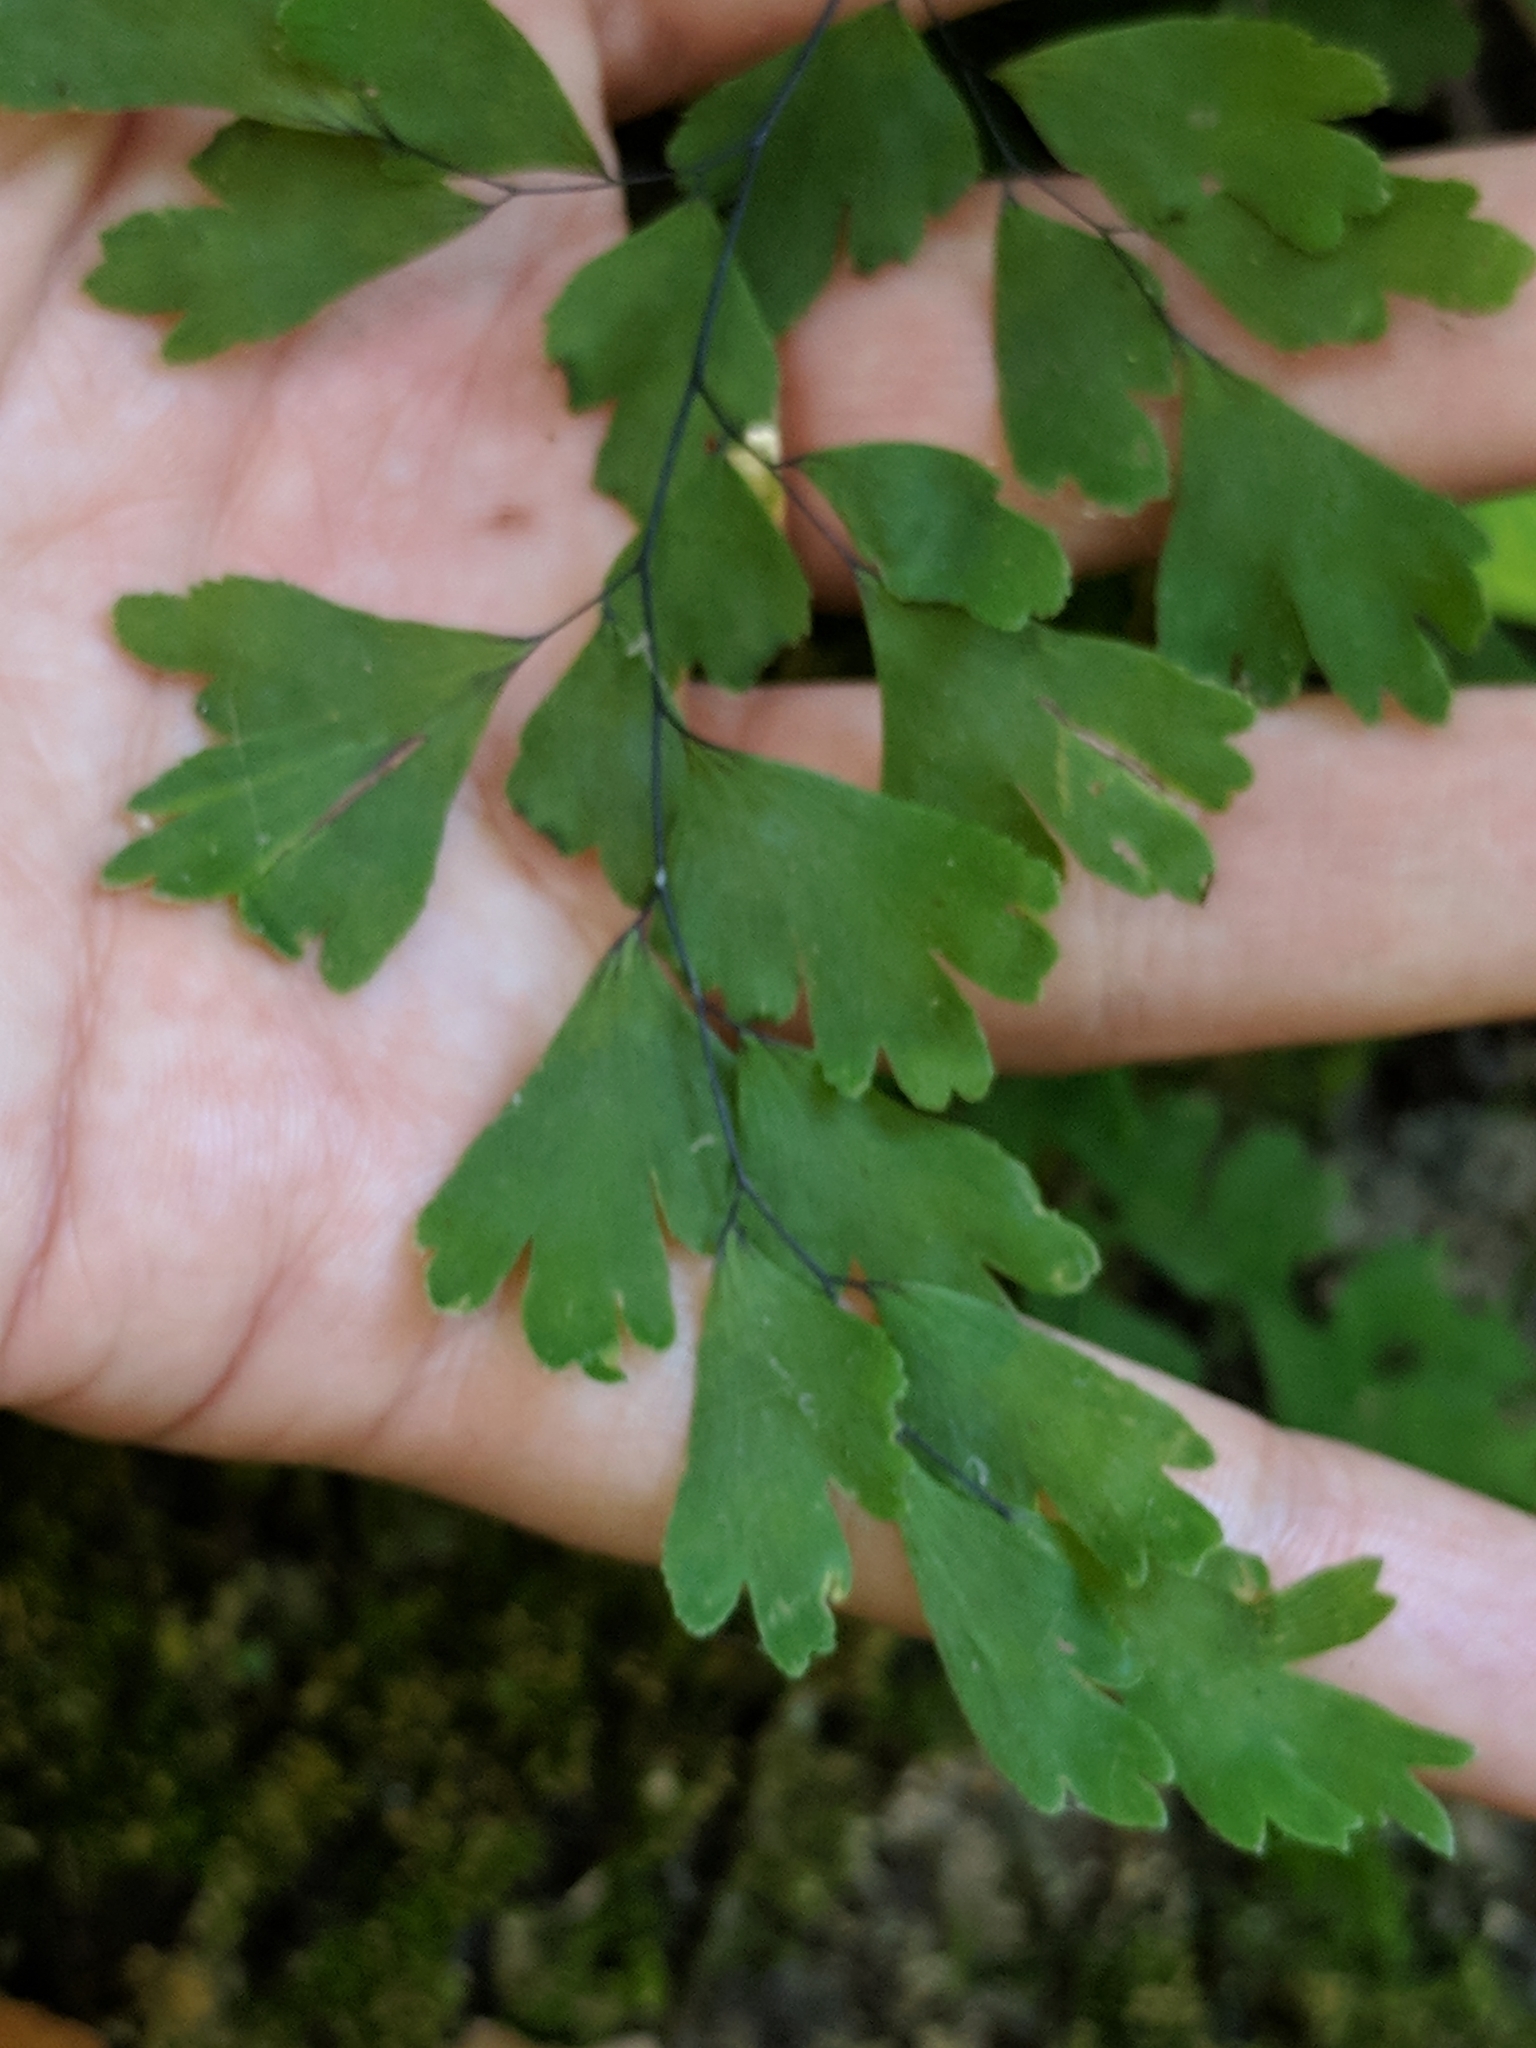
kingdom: Plantae
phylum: Tracheophyta
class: Polypodiopsida
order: Polypodiales
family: Pteridaceae
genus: Adiantum
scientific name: Adiantum capillus-veneris
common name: Maidenhair fern
